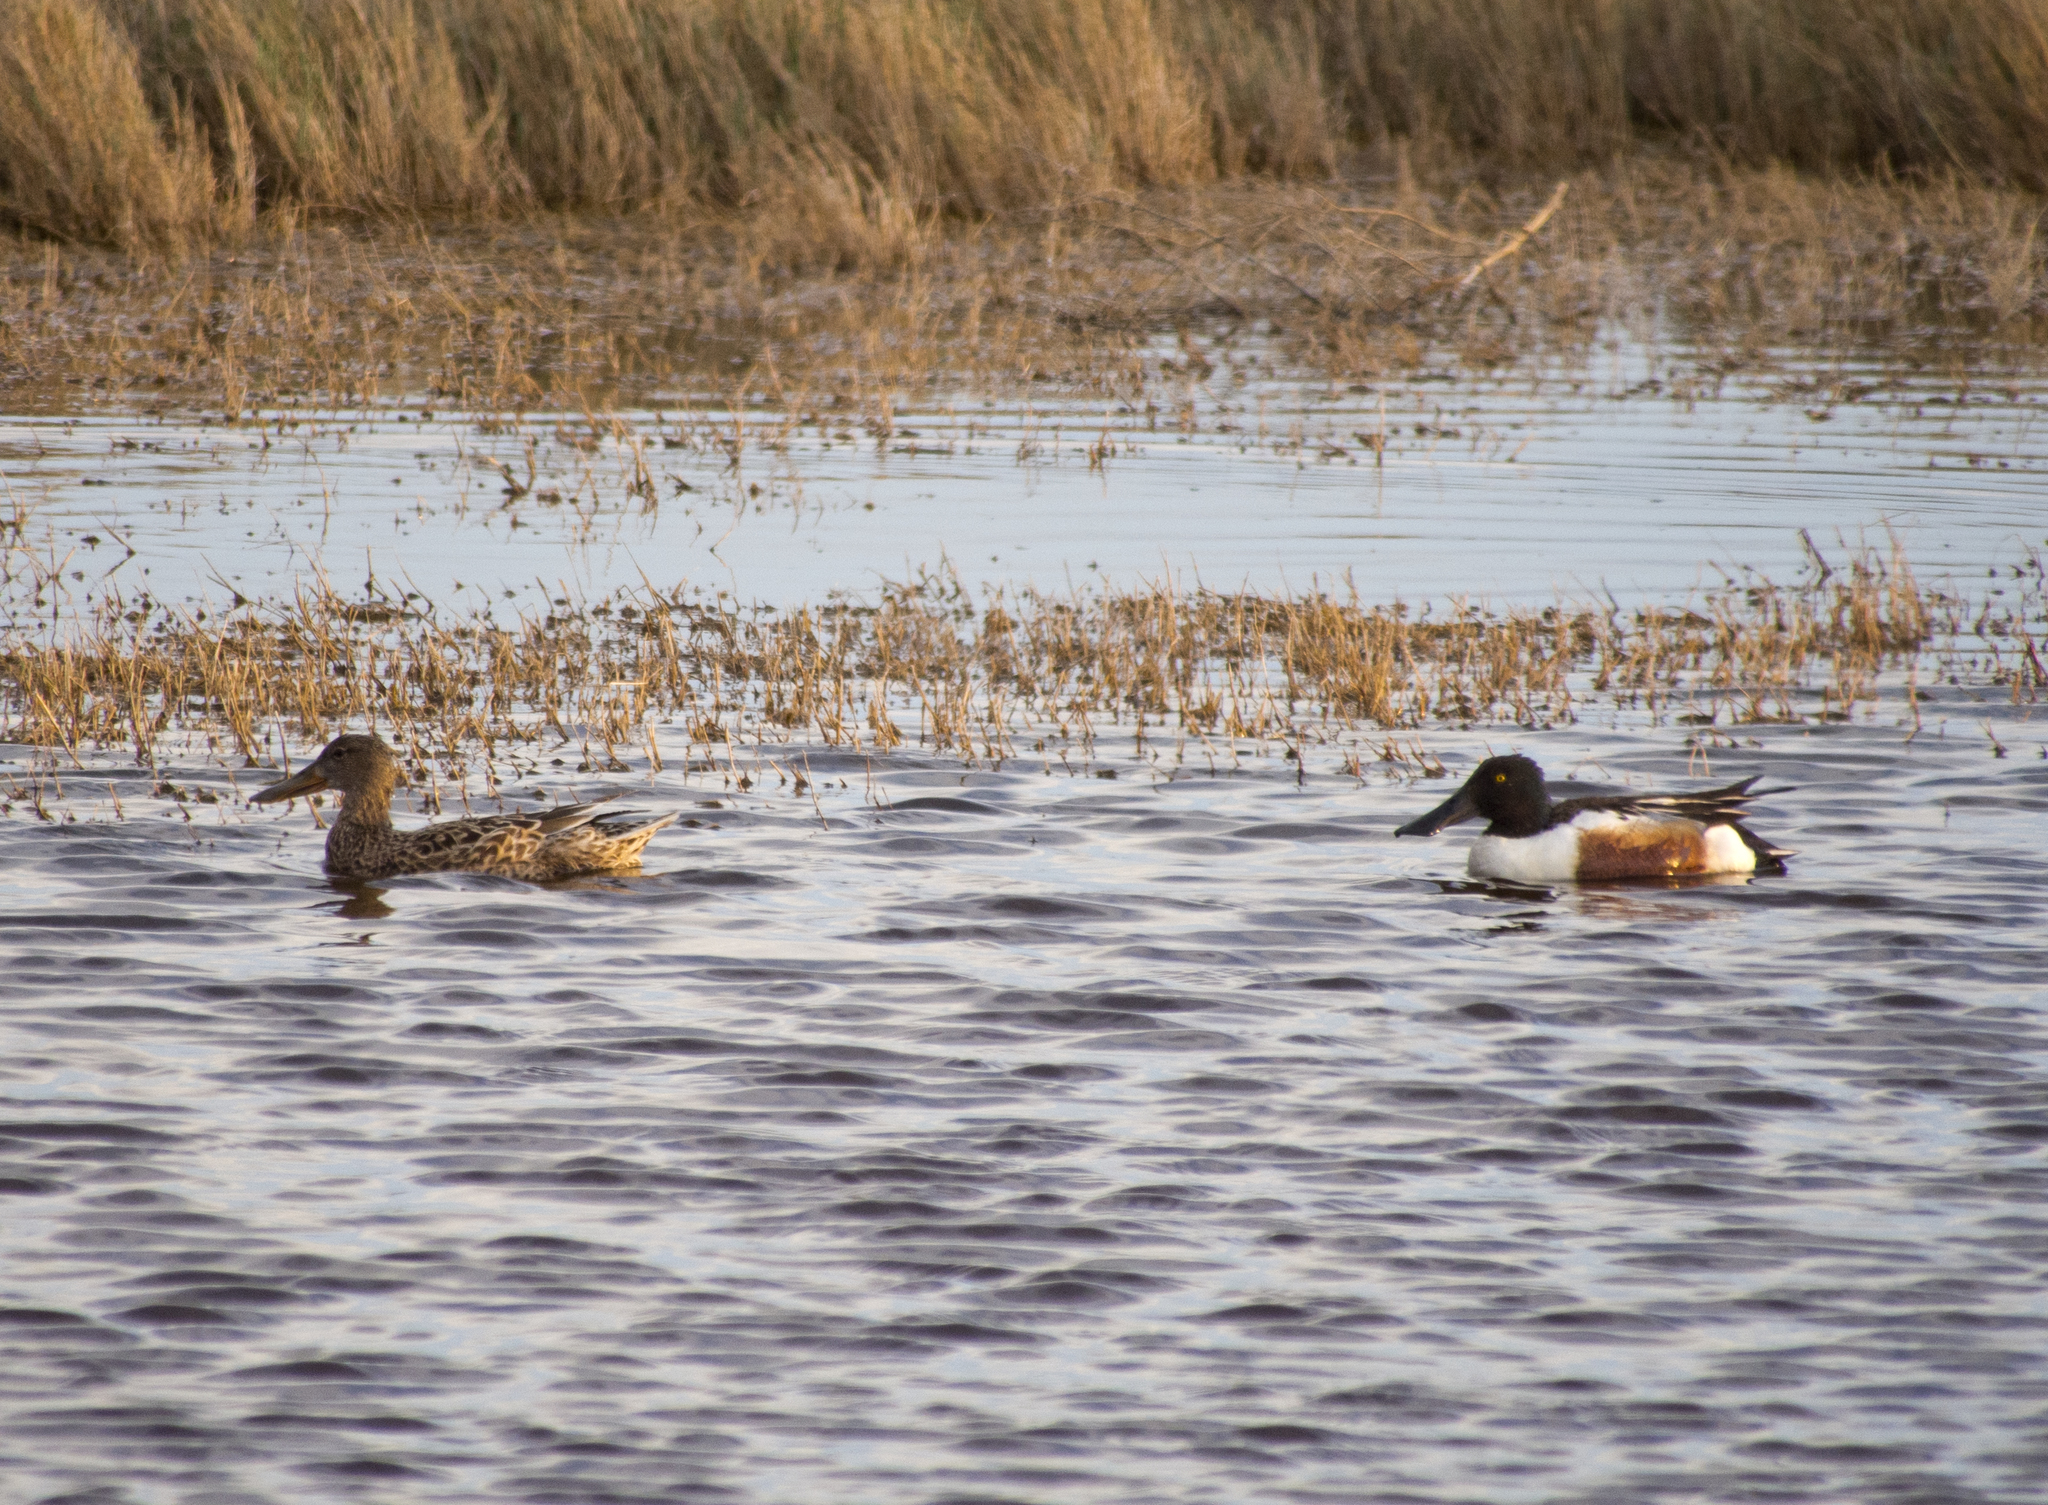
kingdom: Animalia
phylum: Chordata
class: Aves
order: Anseriformes
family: Anatidae
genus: Spatula
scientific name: Spatula clypeata
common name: Northern shoveler
